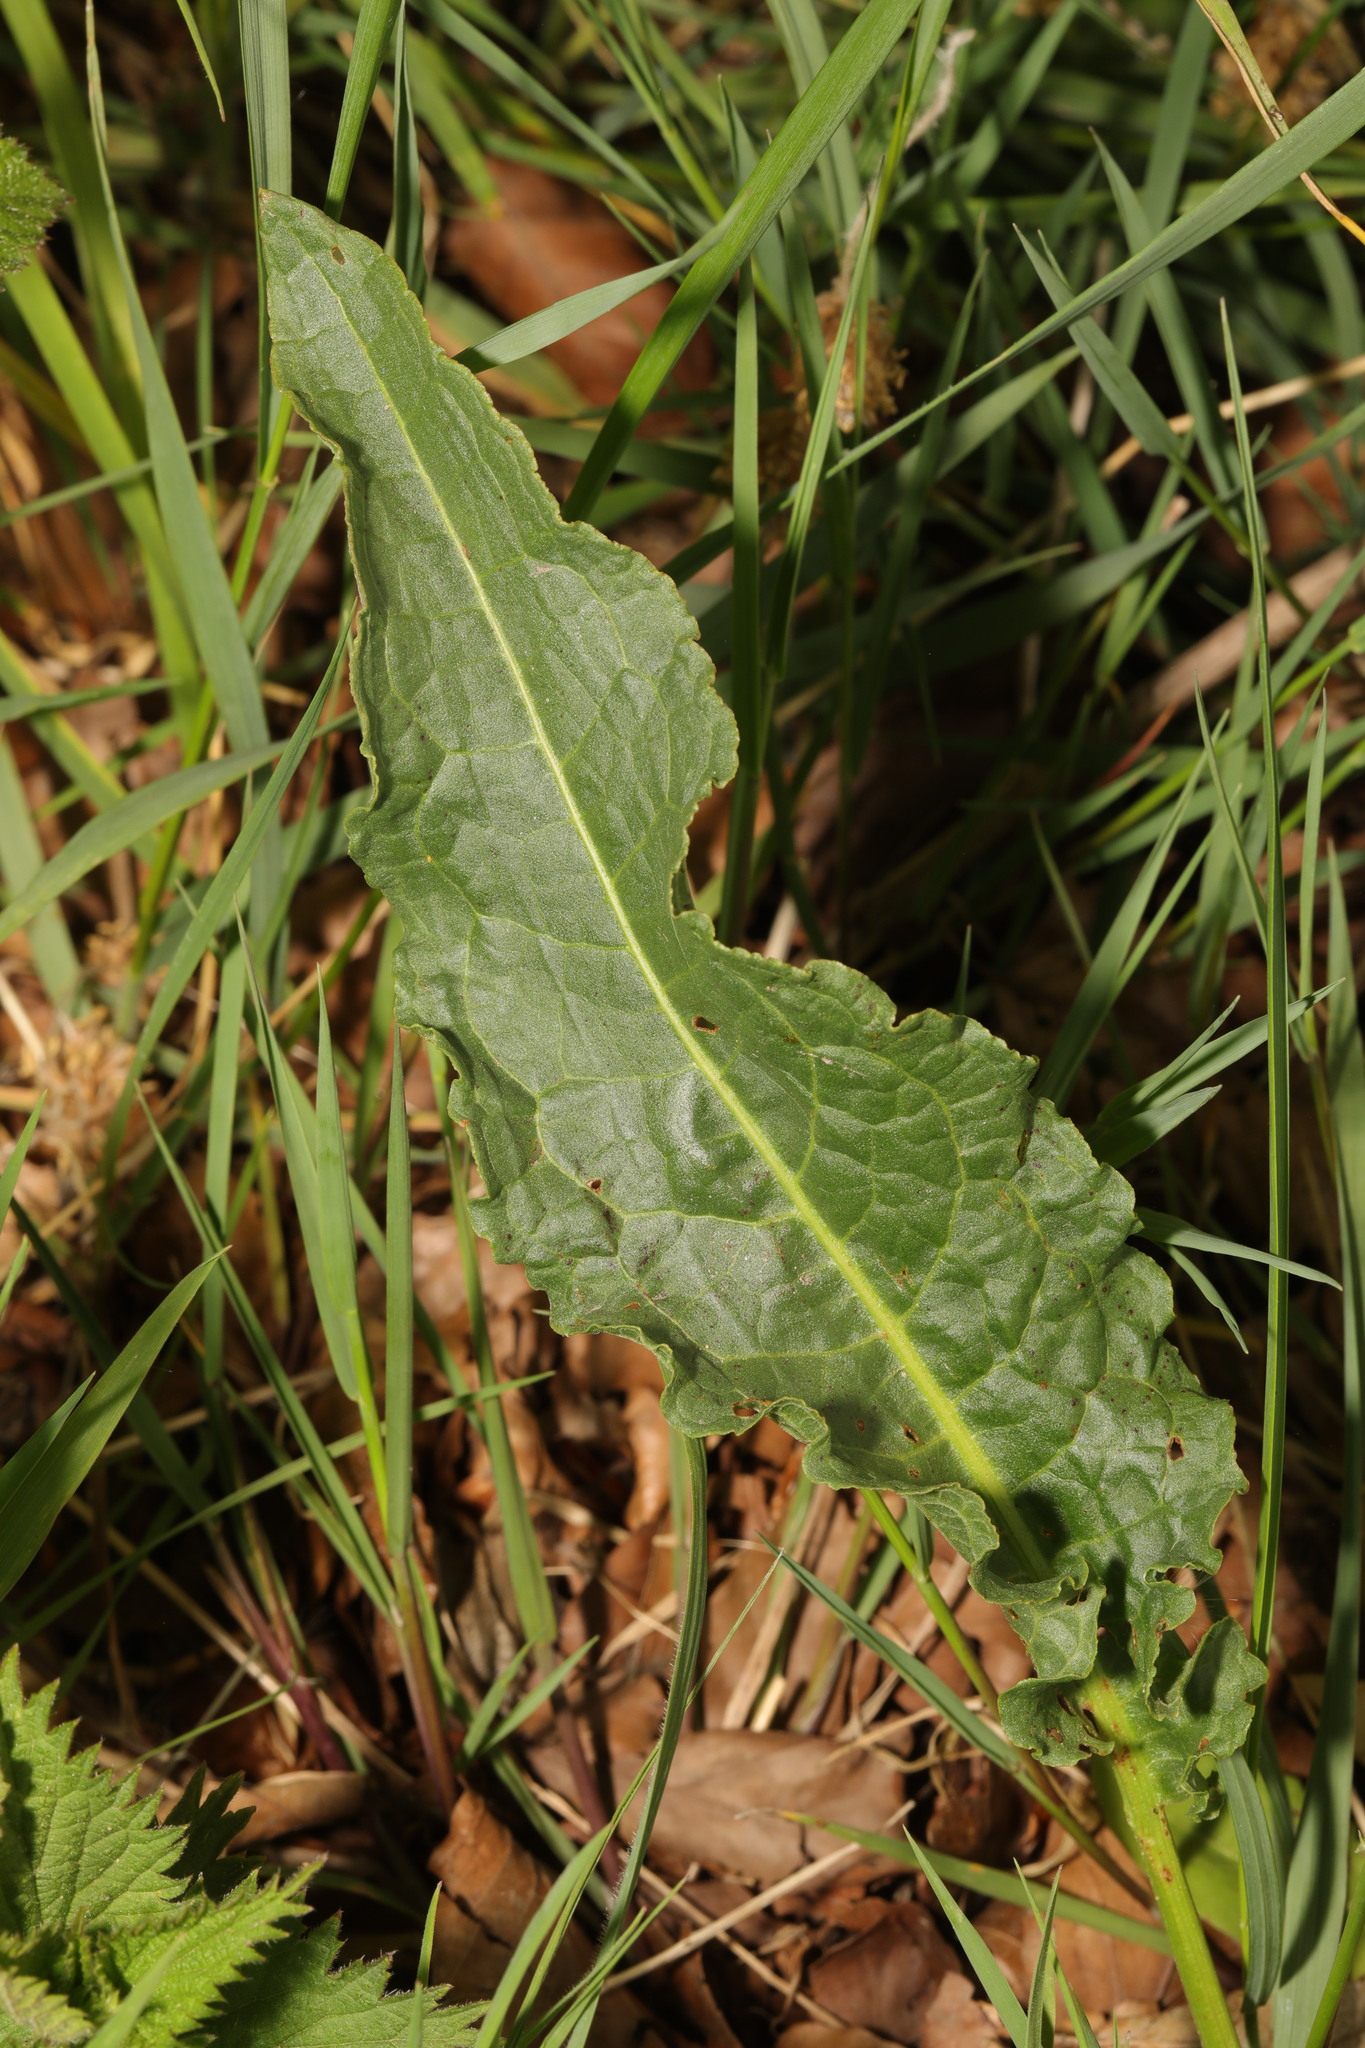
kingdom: Plantae
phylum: Tracheophyta
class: Magnoliopsida
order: Caryophyllales
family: Polygonaceae
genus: Rumex
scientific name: Rumex crispus
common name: Curled dock
